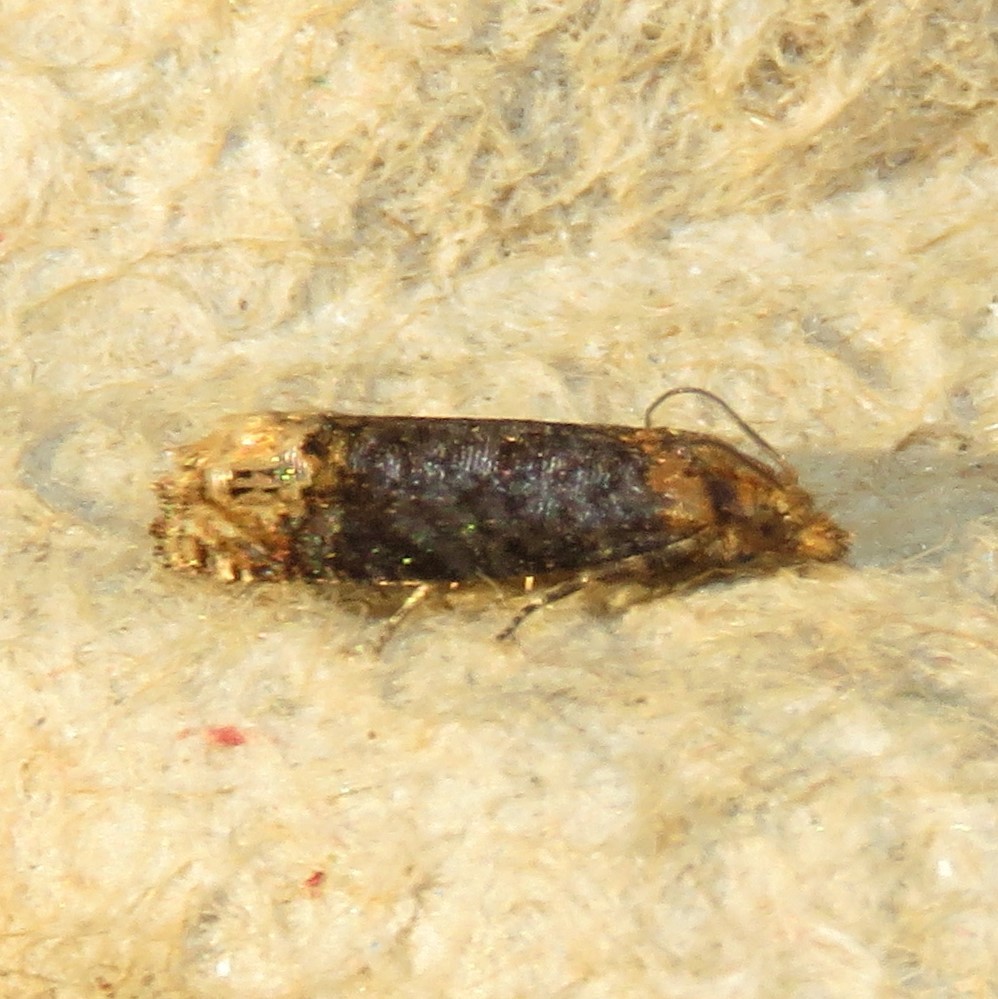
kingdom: Animalia
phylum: Arthropoda
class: Insecta
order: Lepidoptera
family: Tortricidae
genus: Eucosma
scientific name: Eucosma ochroterminana
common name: Buff-tipped eucosma moth
